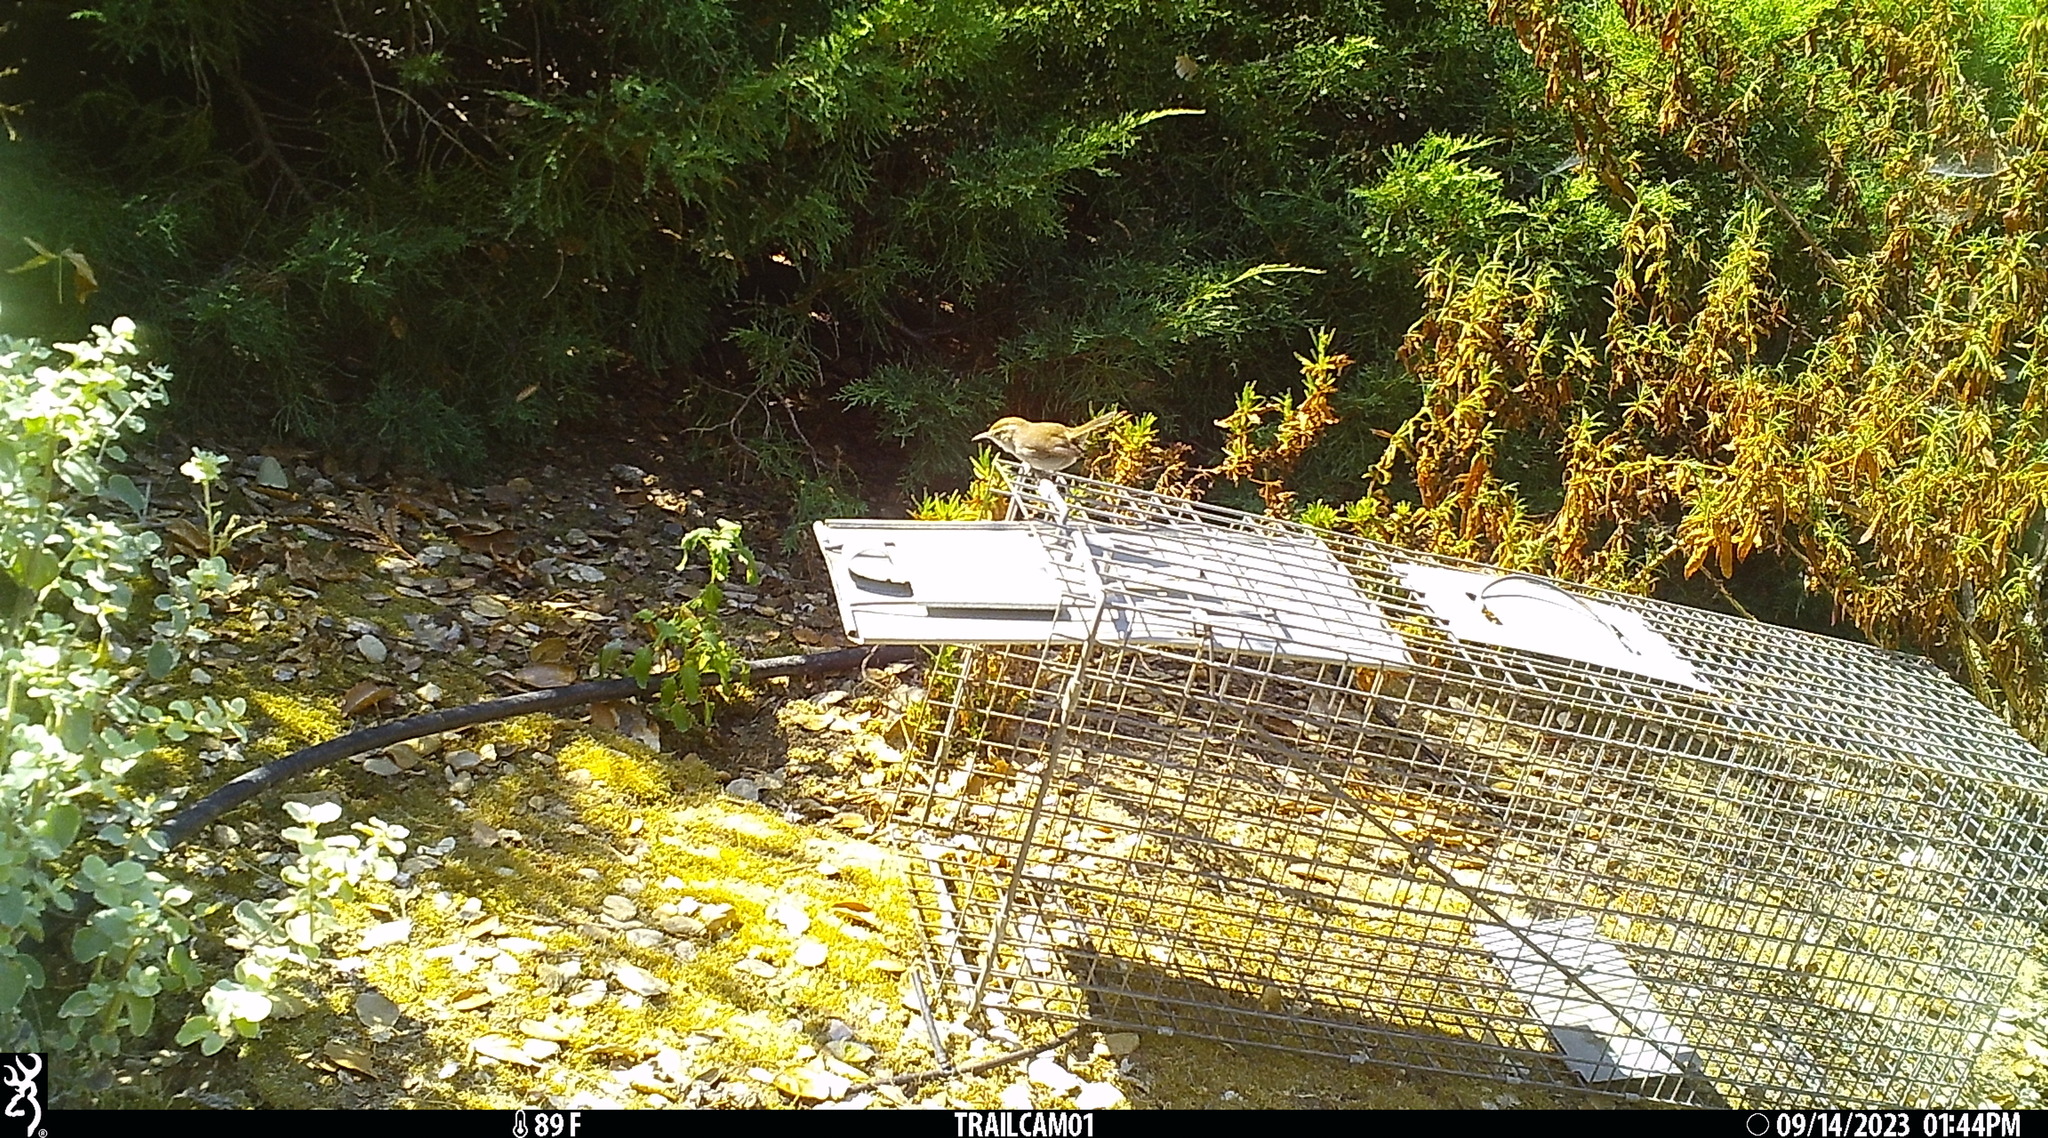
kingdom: Animalia
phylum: Chordata
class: Aves
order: Passeriformes
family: Troglodytidae
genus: Thryomanes
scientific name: Thryomanes bewickii
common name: Bewick's wren
